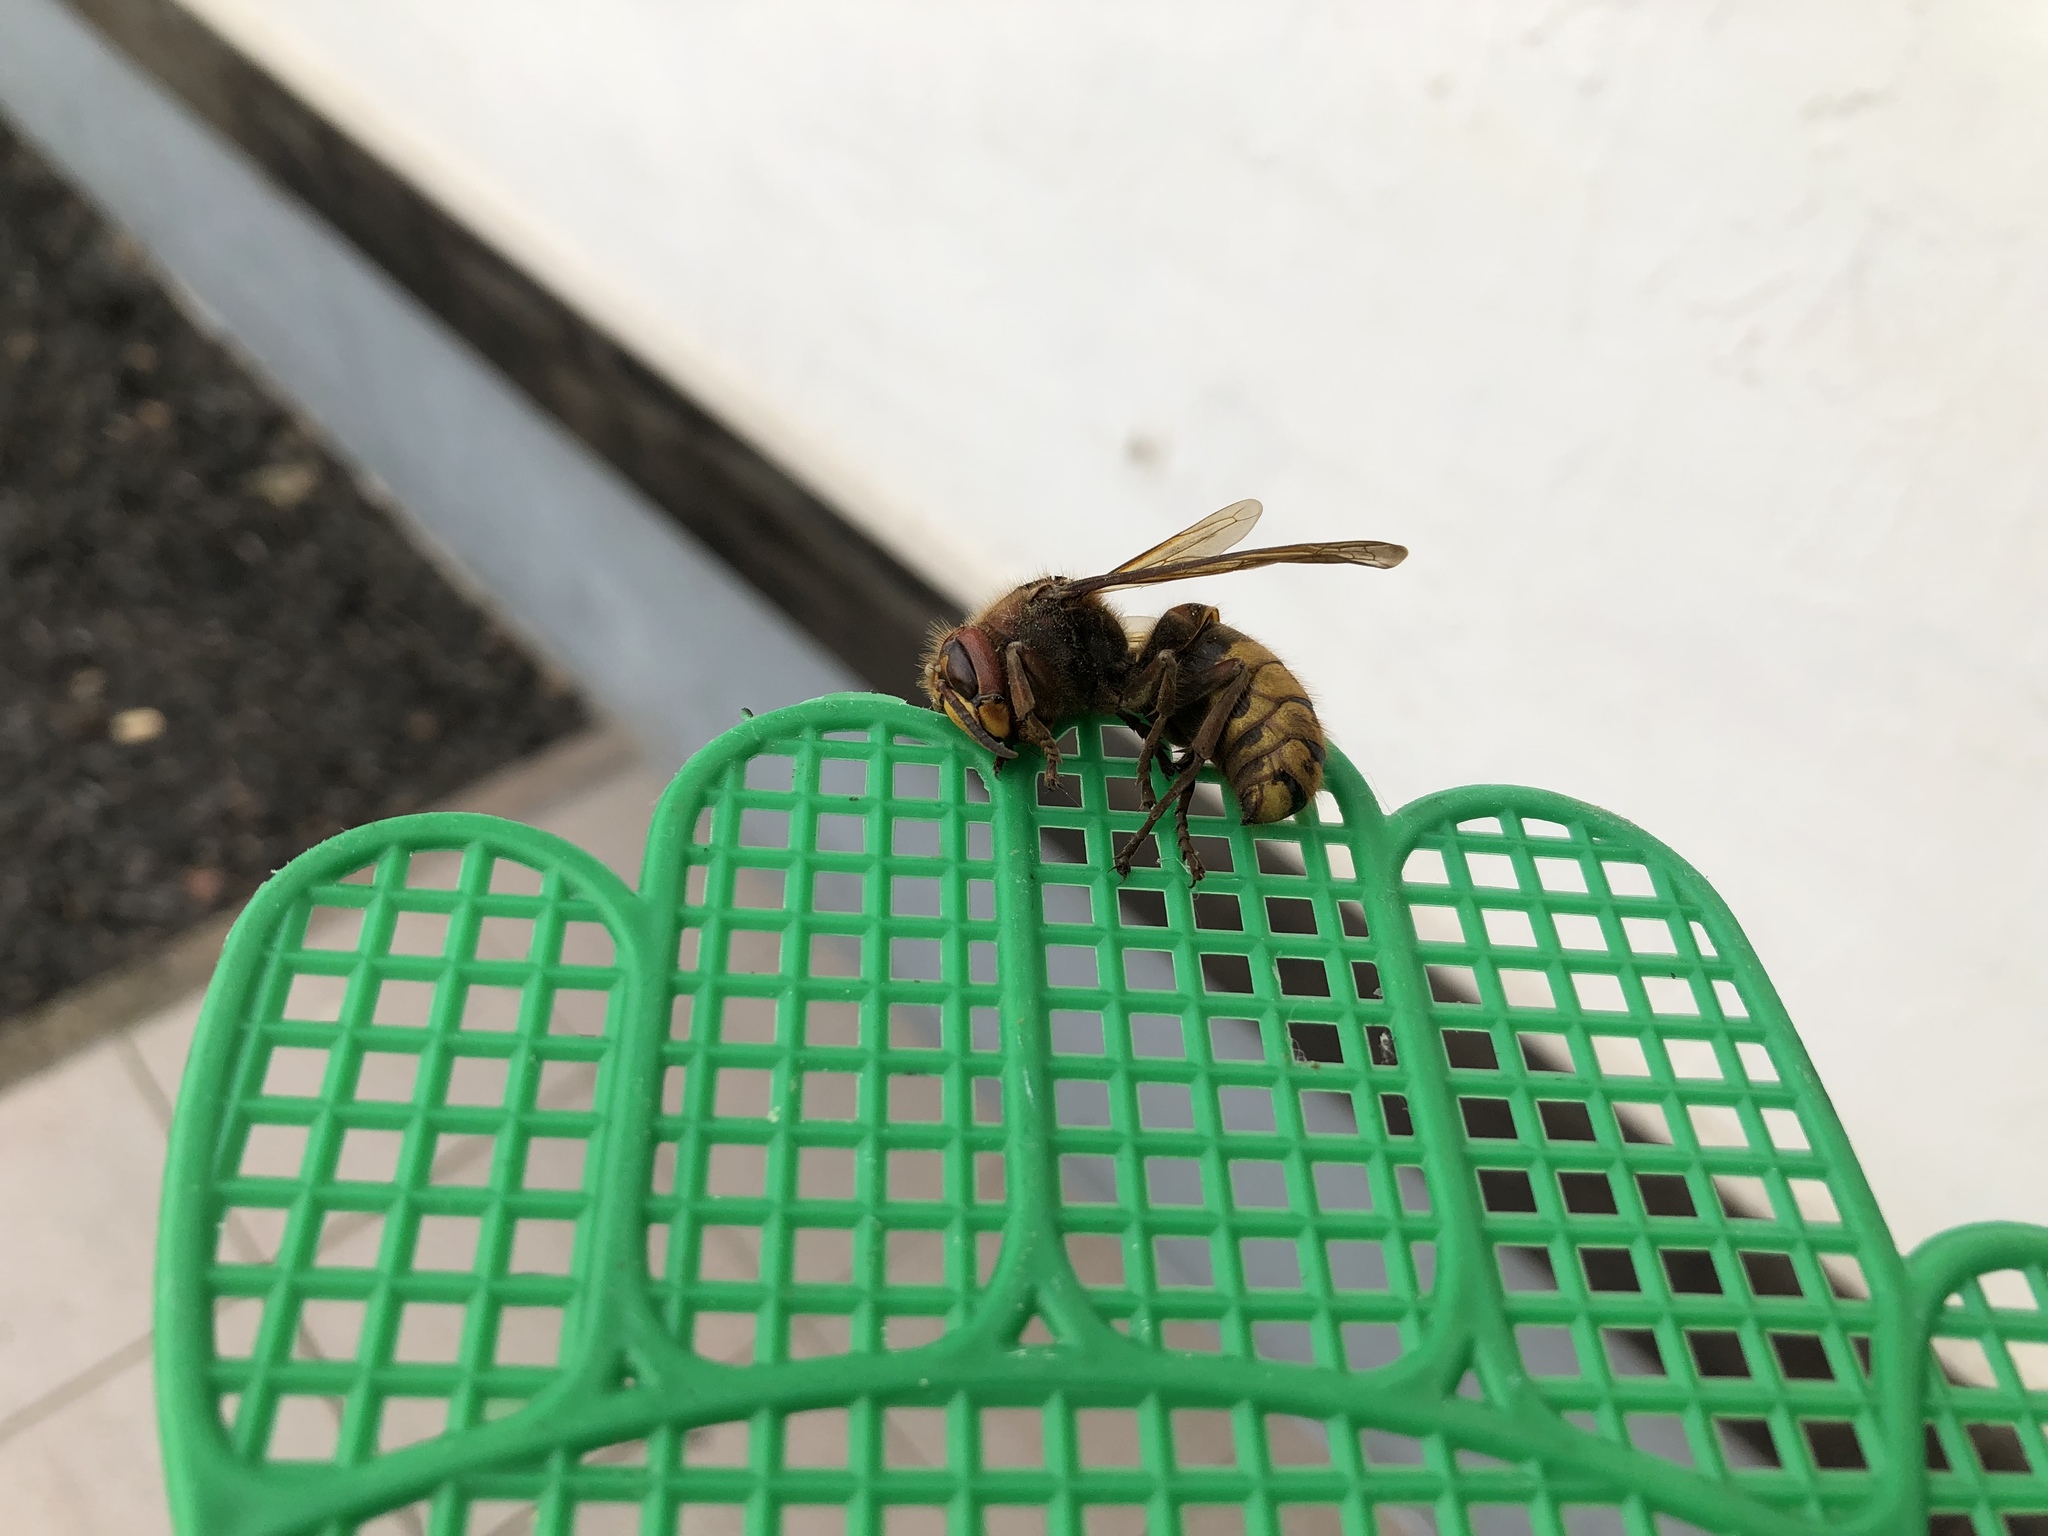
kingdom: Animalia
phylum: Arthropoda
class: Insecta
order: Hymenoptera
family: Vespidae
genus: Vespa
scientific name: Vespa crabro
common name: Hornet
